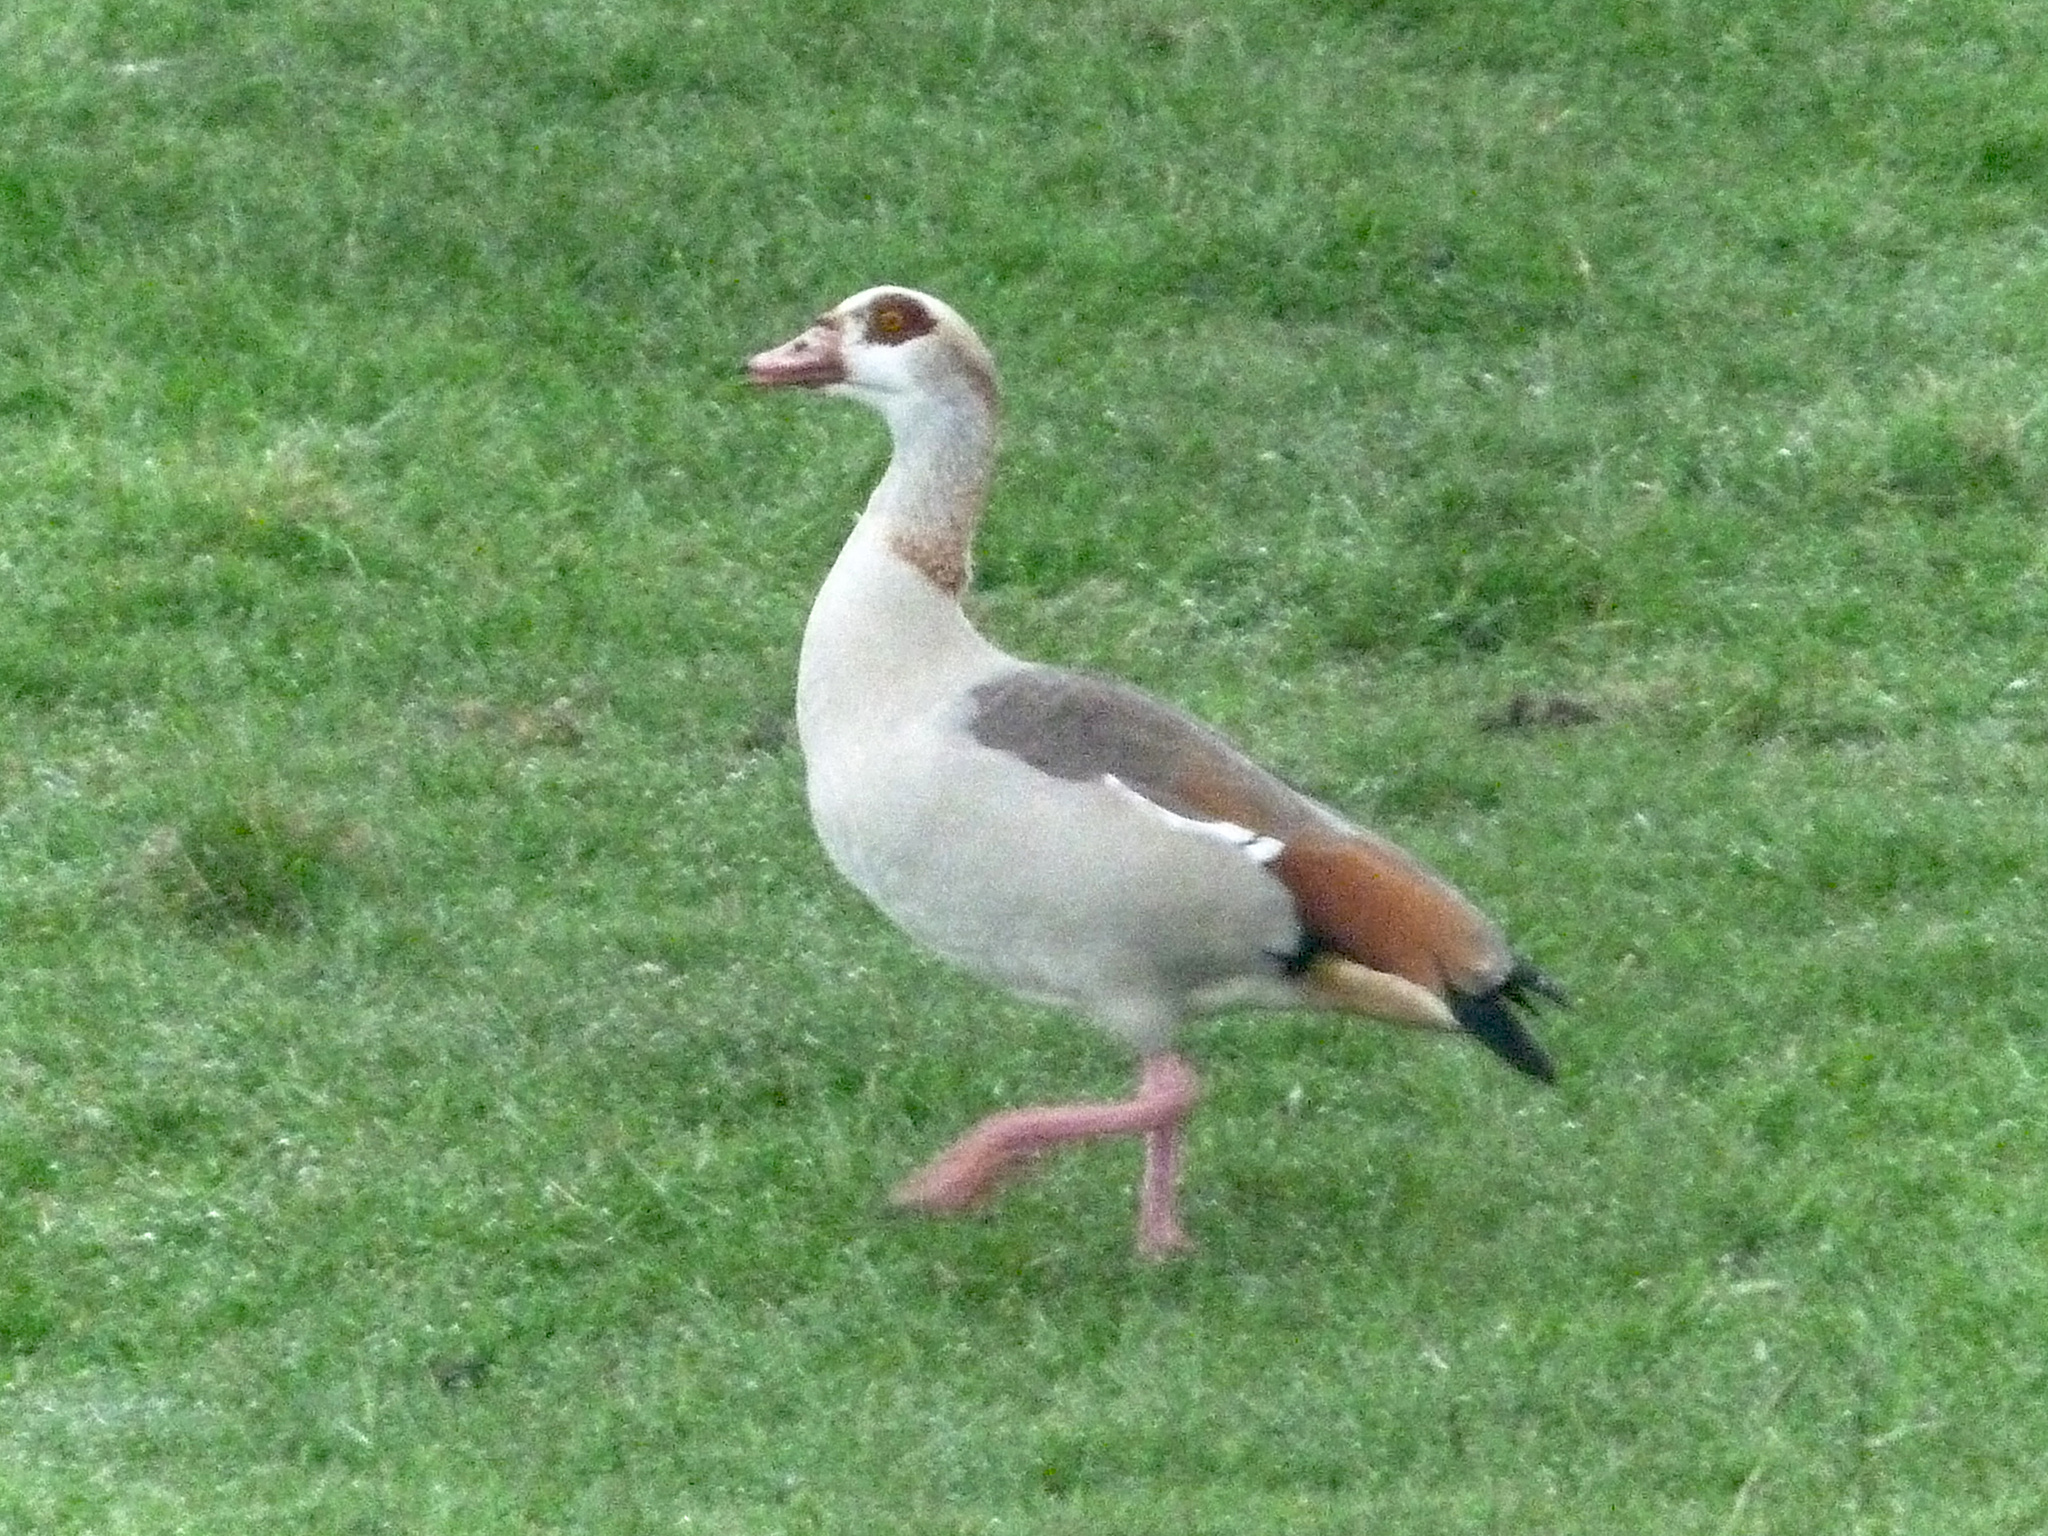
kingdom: Animalia
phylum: Chordata
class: Aves
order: Anseriformes
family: Anatidae
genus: Alopochen
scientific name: Alopochen aegyptiaca
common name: Egyptian goose
